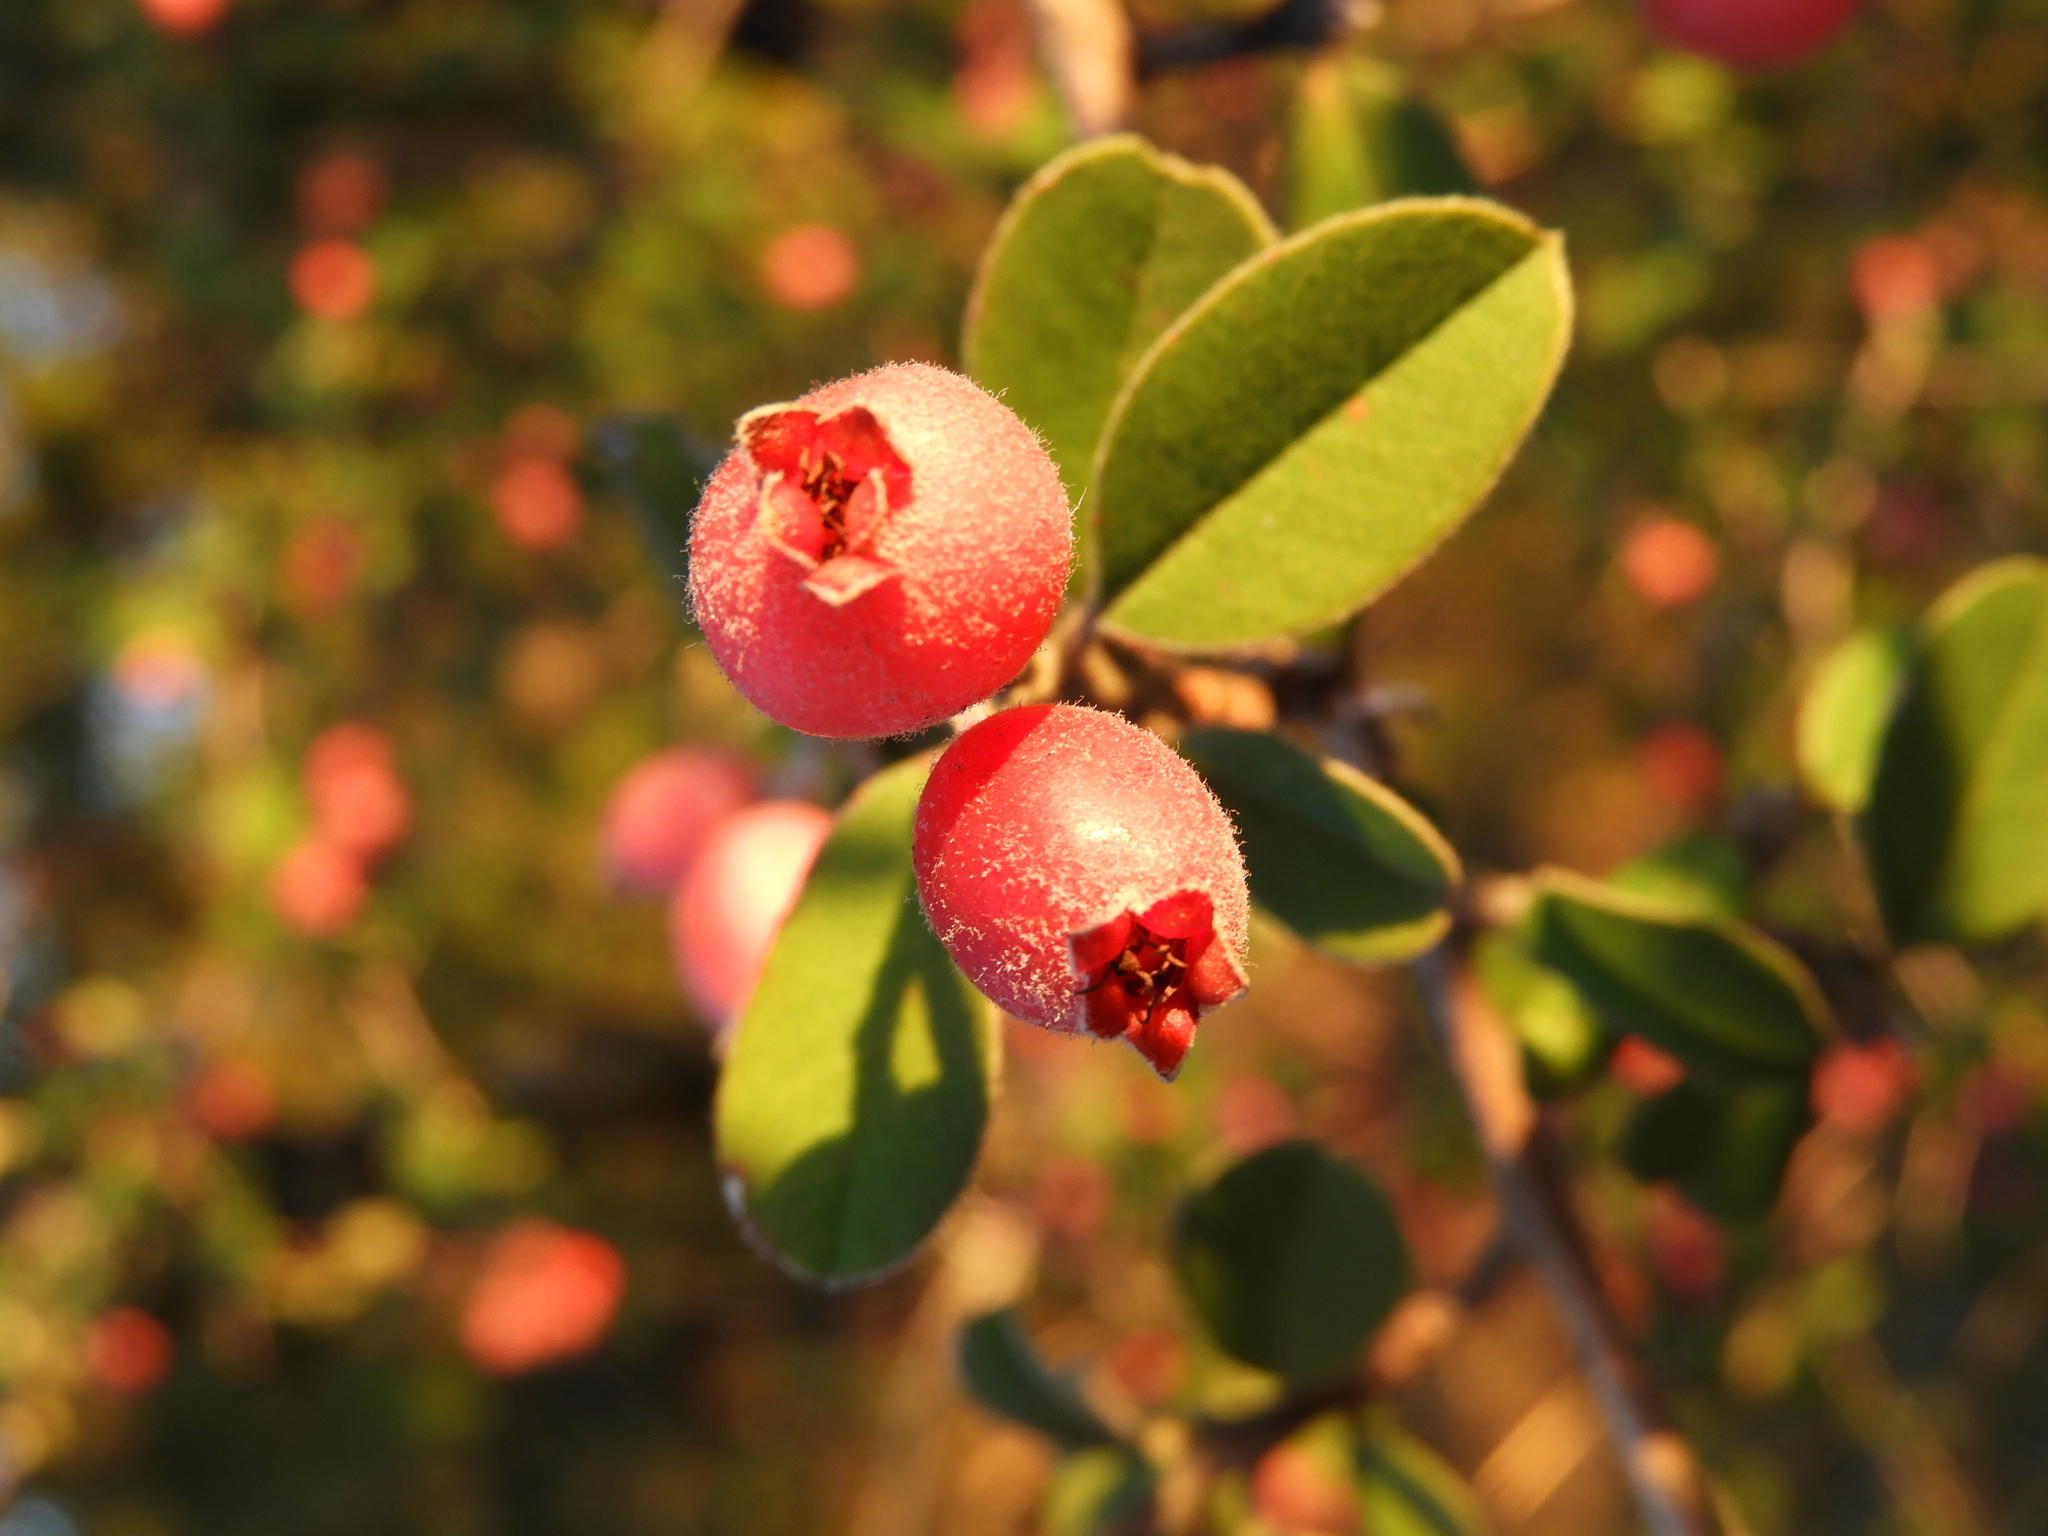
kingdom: Plantae
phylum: Tracheophyta
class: Magnoliopsida
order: Rosales
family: Rosaceae
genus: Malacomeles
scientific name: Malacomeles denticulata
